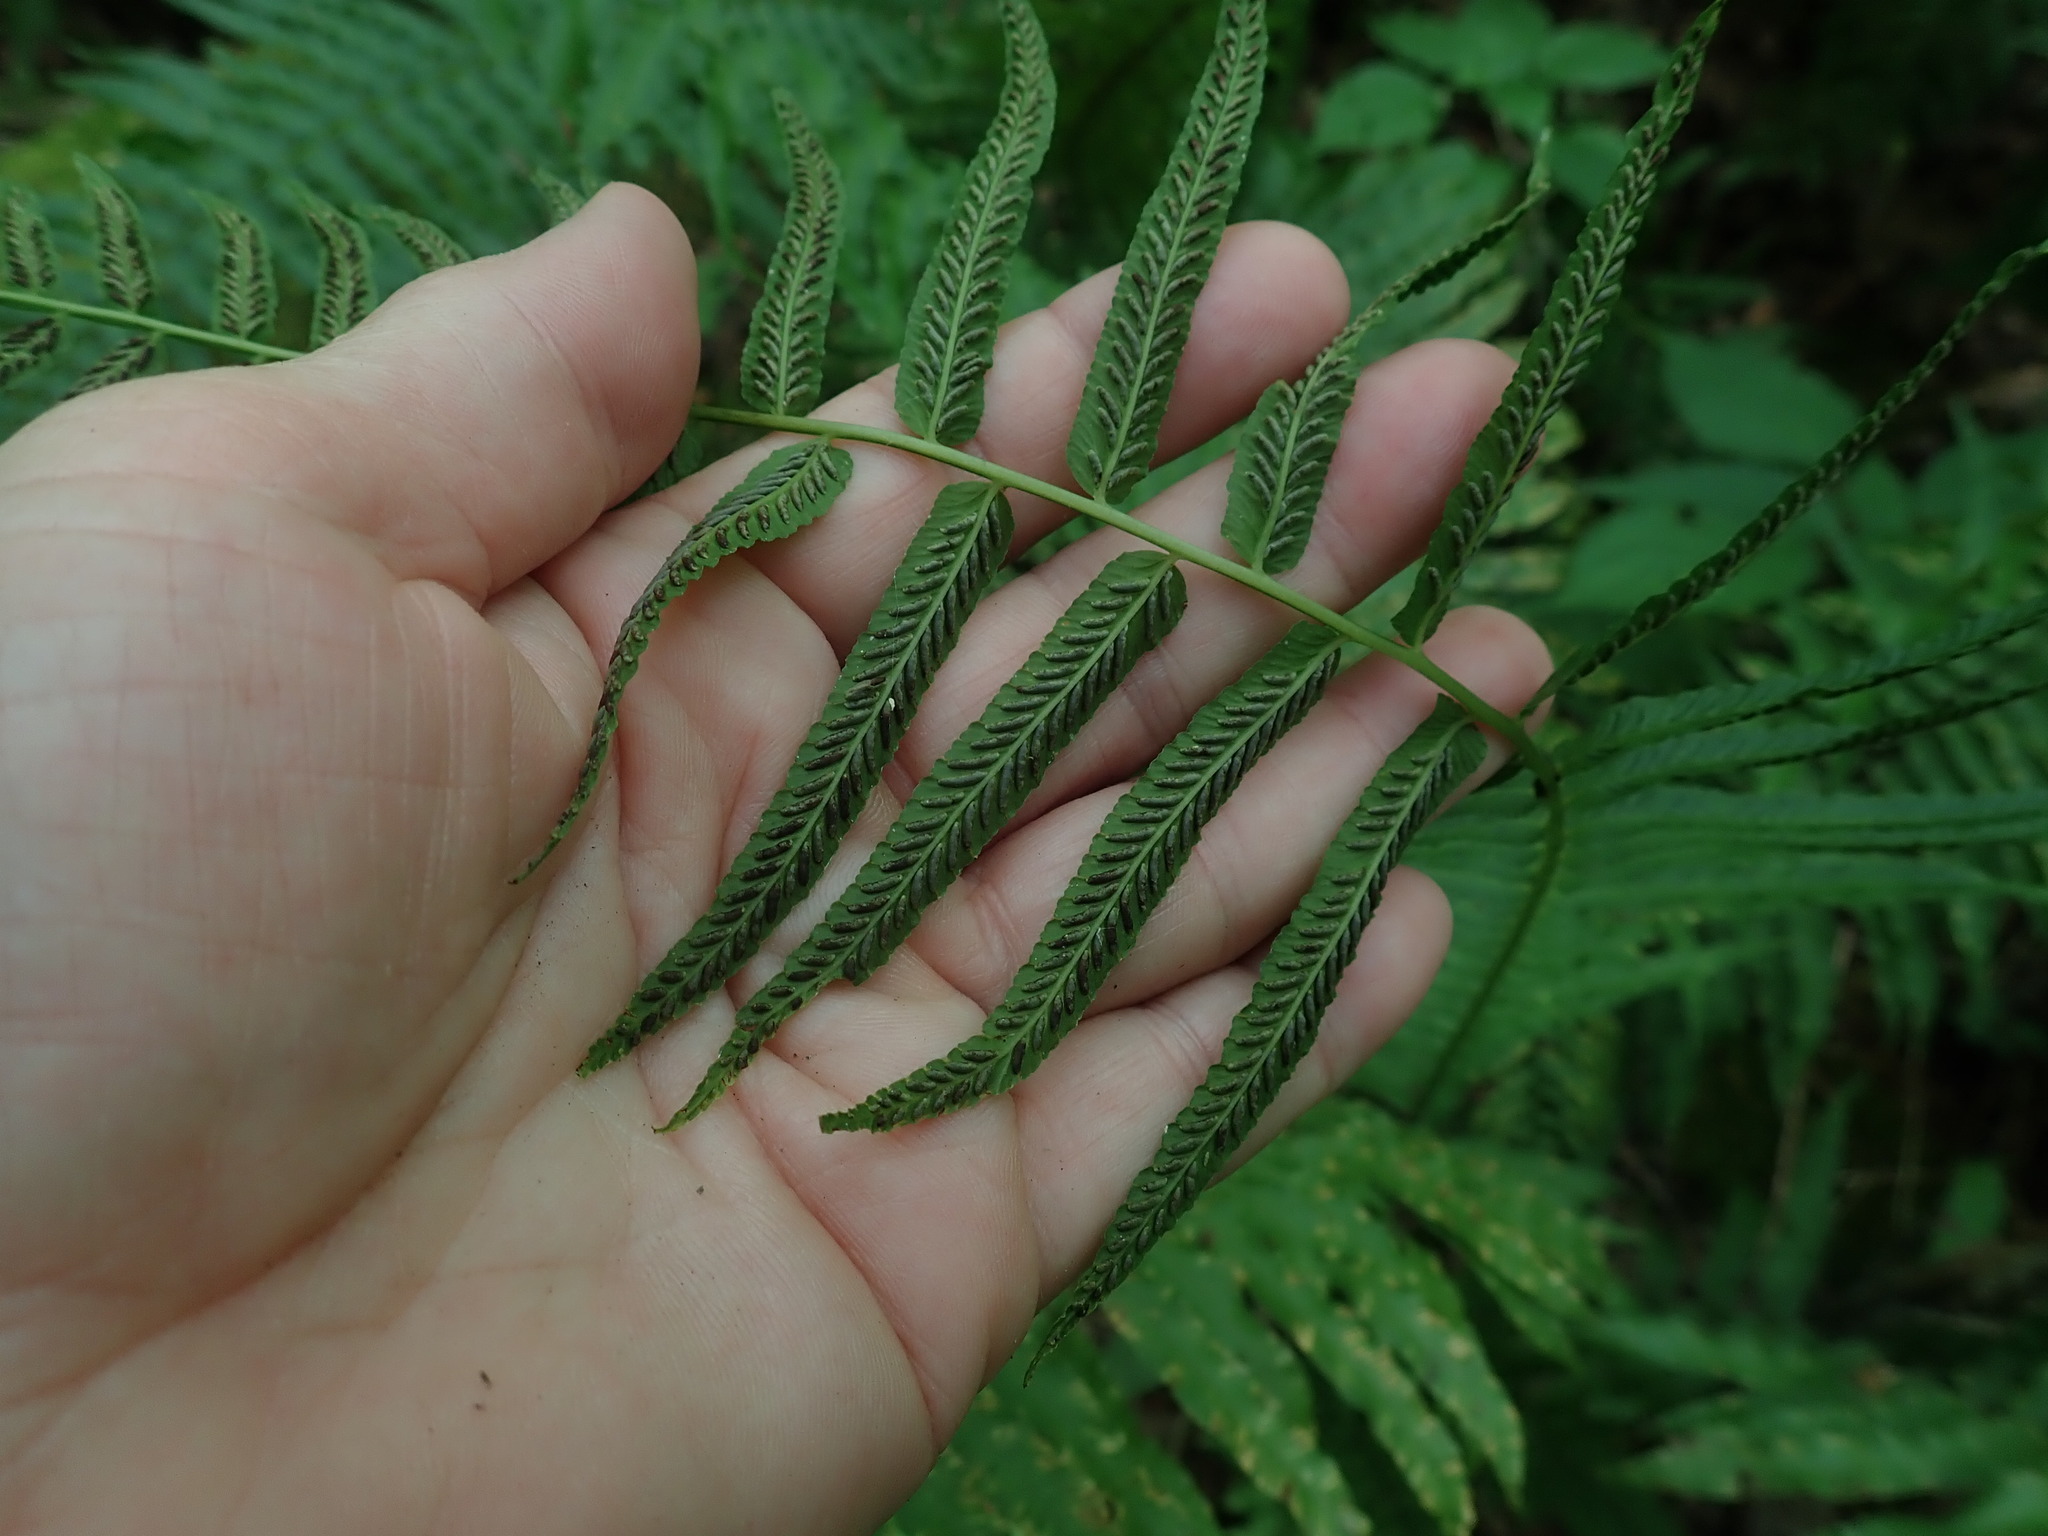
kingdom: Plantae
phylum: Tracheophyta
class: Polypodiopsida
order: Polypodiales
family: Diplaziopsidaceae
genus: Homalosorus
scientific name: Homalosorus pycnocarpos
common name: Glade fern
